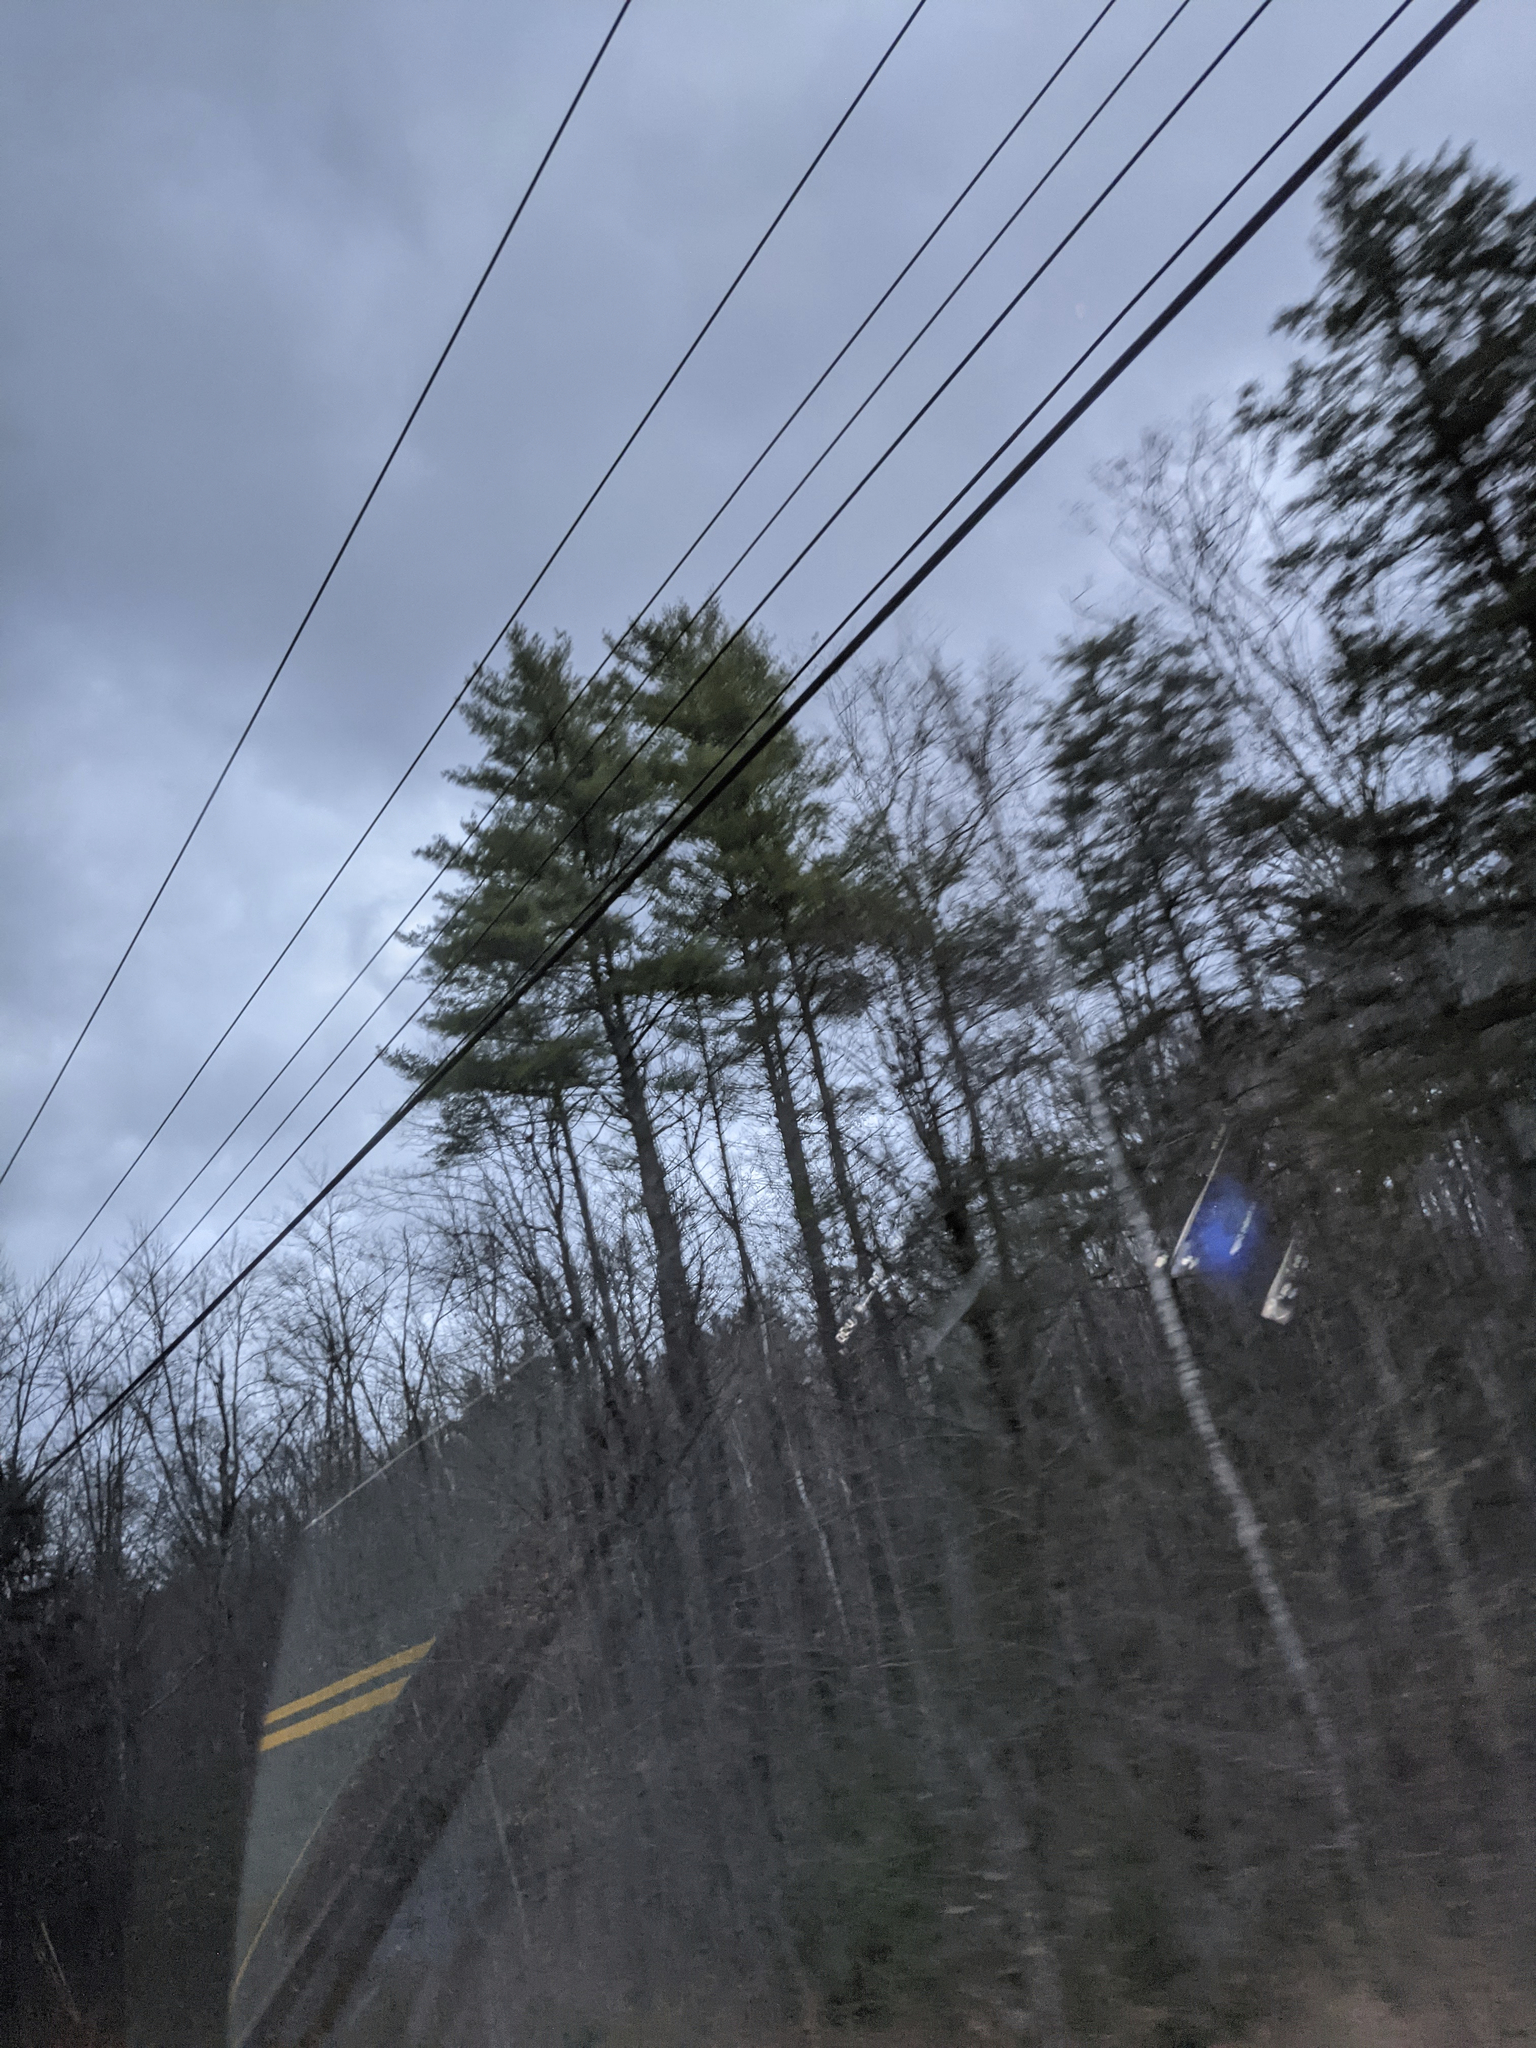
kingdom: Plantae
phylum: Tracheophyta
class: Pinopsida
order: Pinales
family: Pinaceae
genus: Pinus
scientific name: Pinus strobus
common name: Weymouth pine
